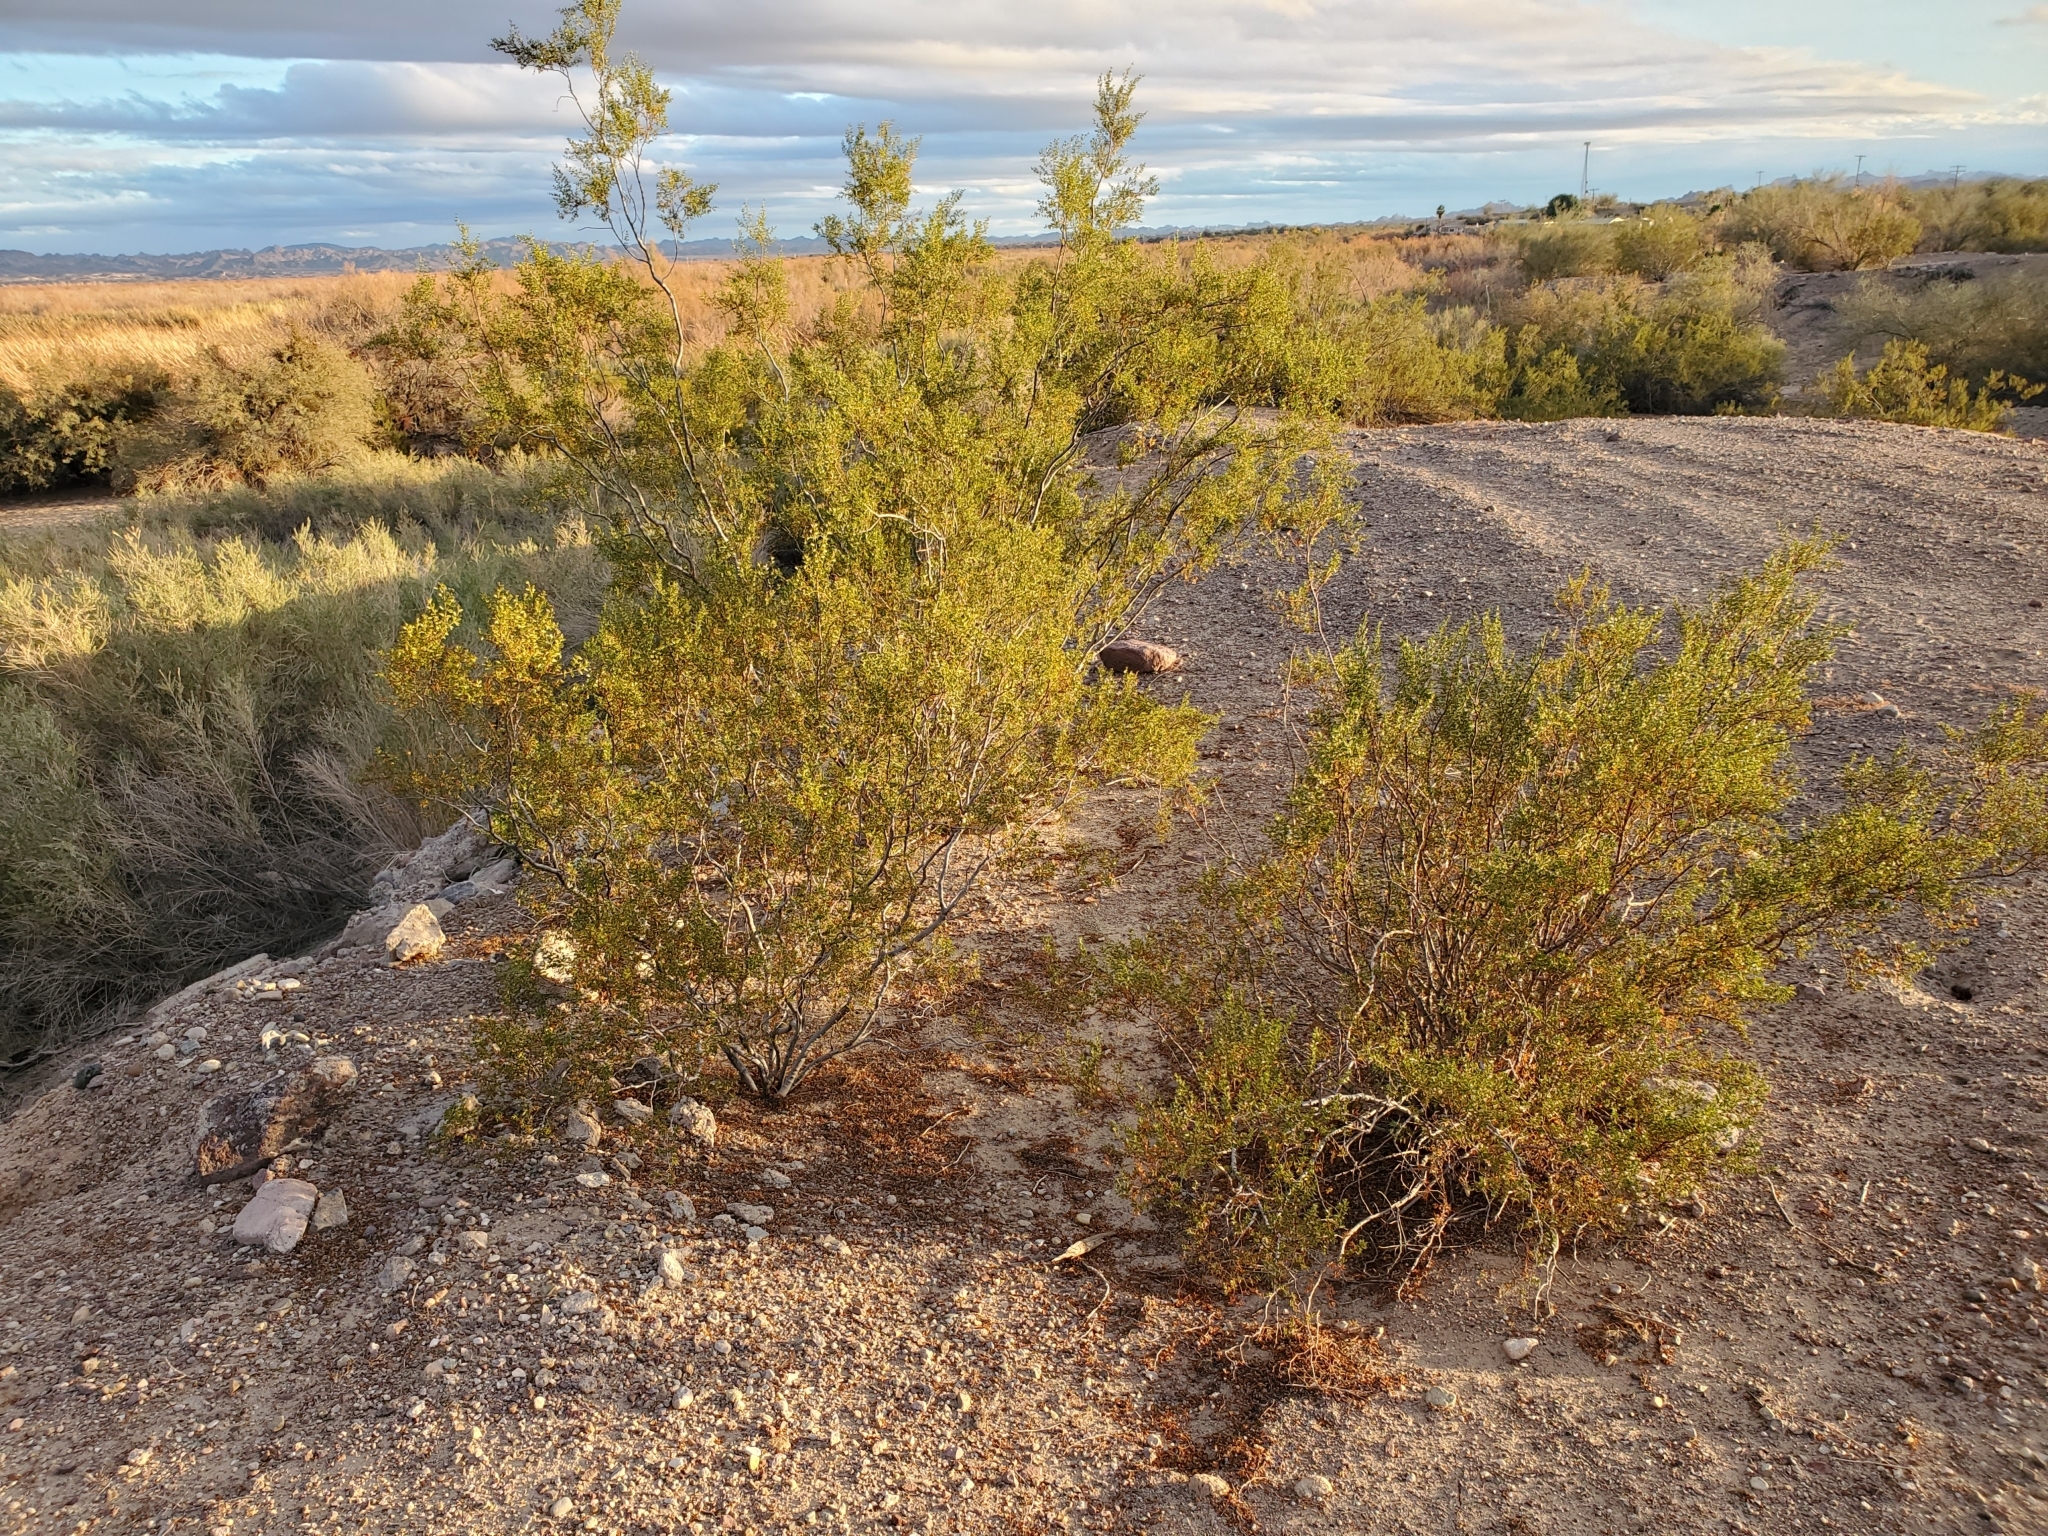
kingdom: Plantae
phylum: Tracheophyta
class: Magnoliopsida
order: Zygophyllales
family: Zygophyllaceae
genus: Larrea
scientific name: Larrea tridentata
